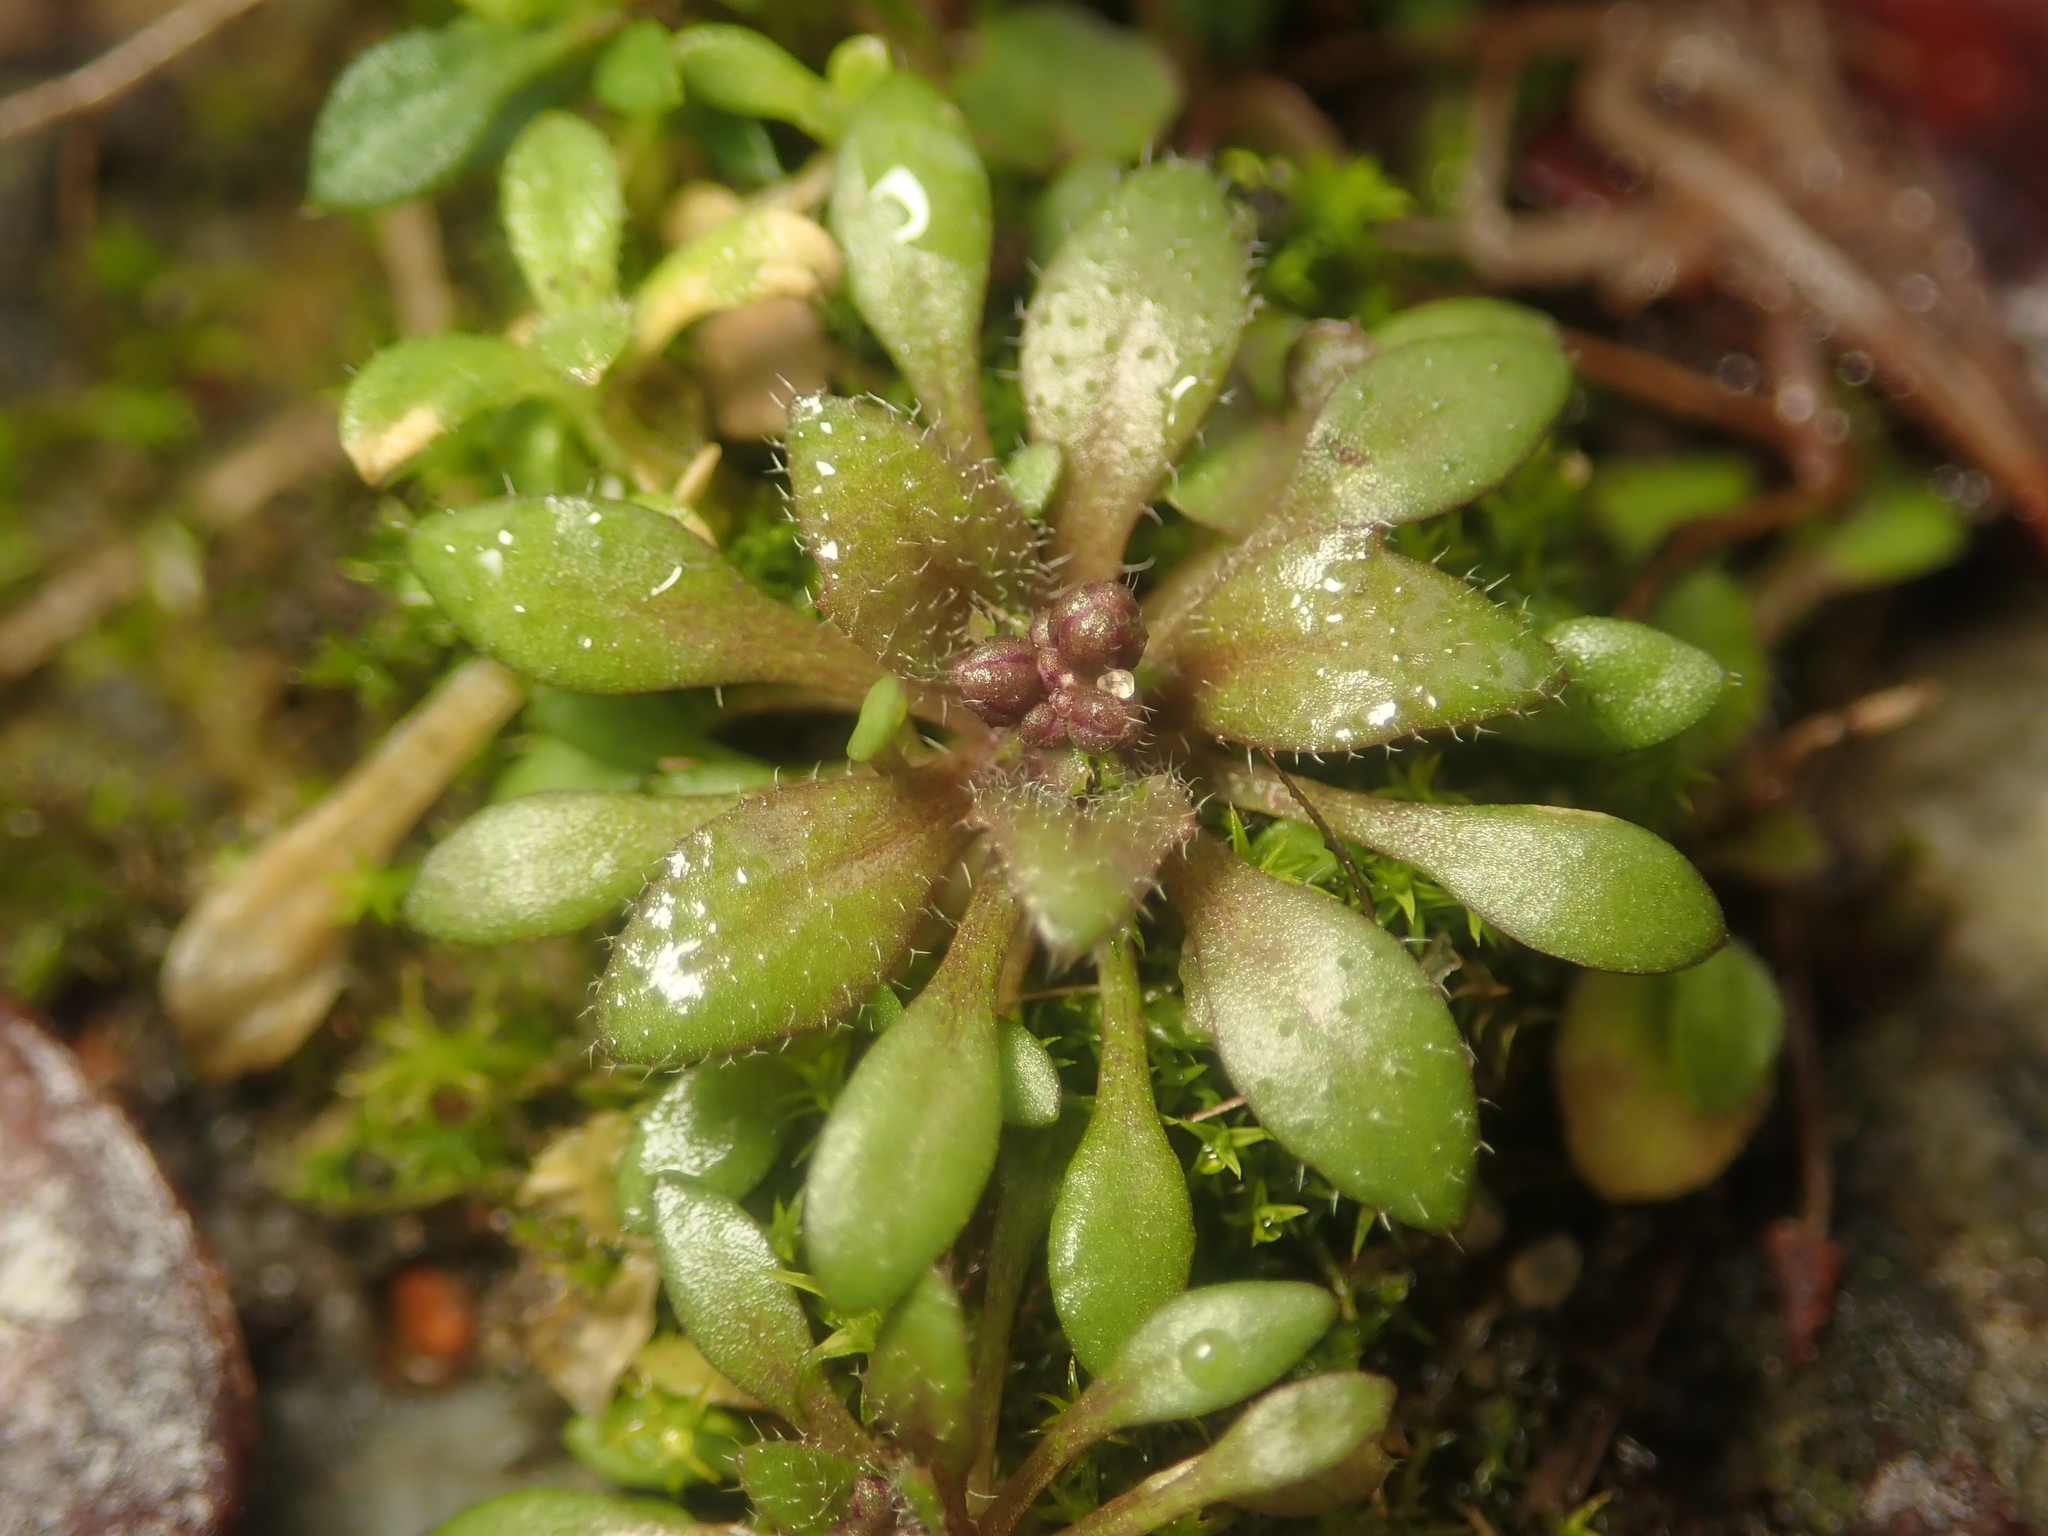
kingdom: Plantae
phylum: Tracheophyta
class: Magnoliopsida
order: Brassicales
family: Brassicaceae
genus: Draba
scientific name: Draba verna
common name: Spring draba
